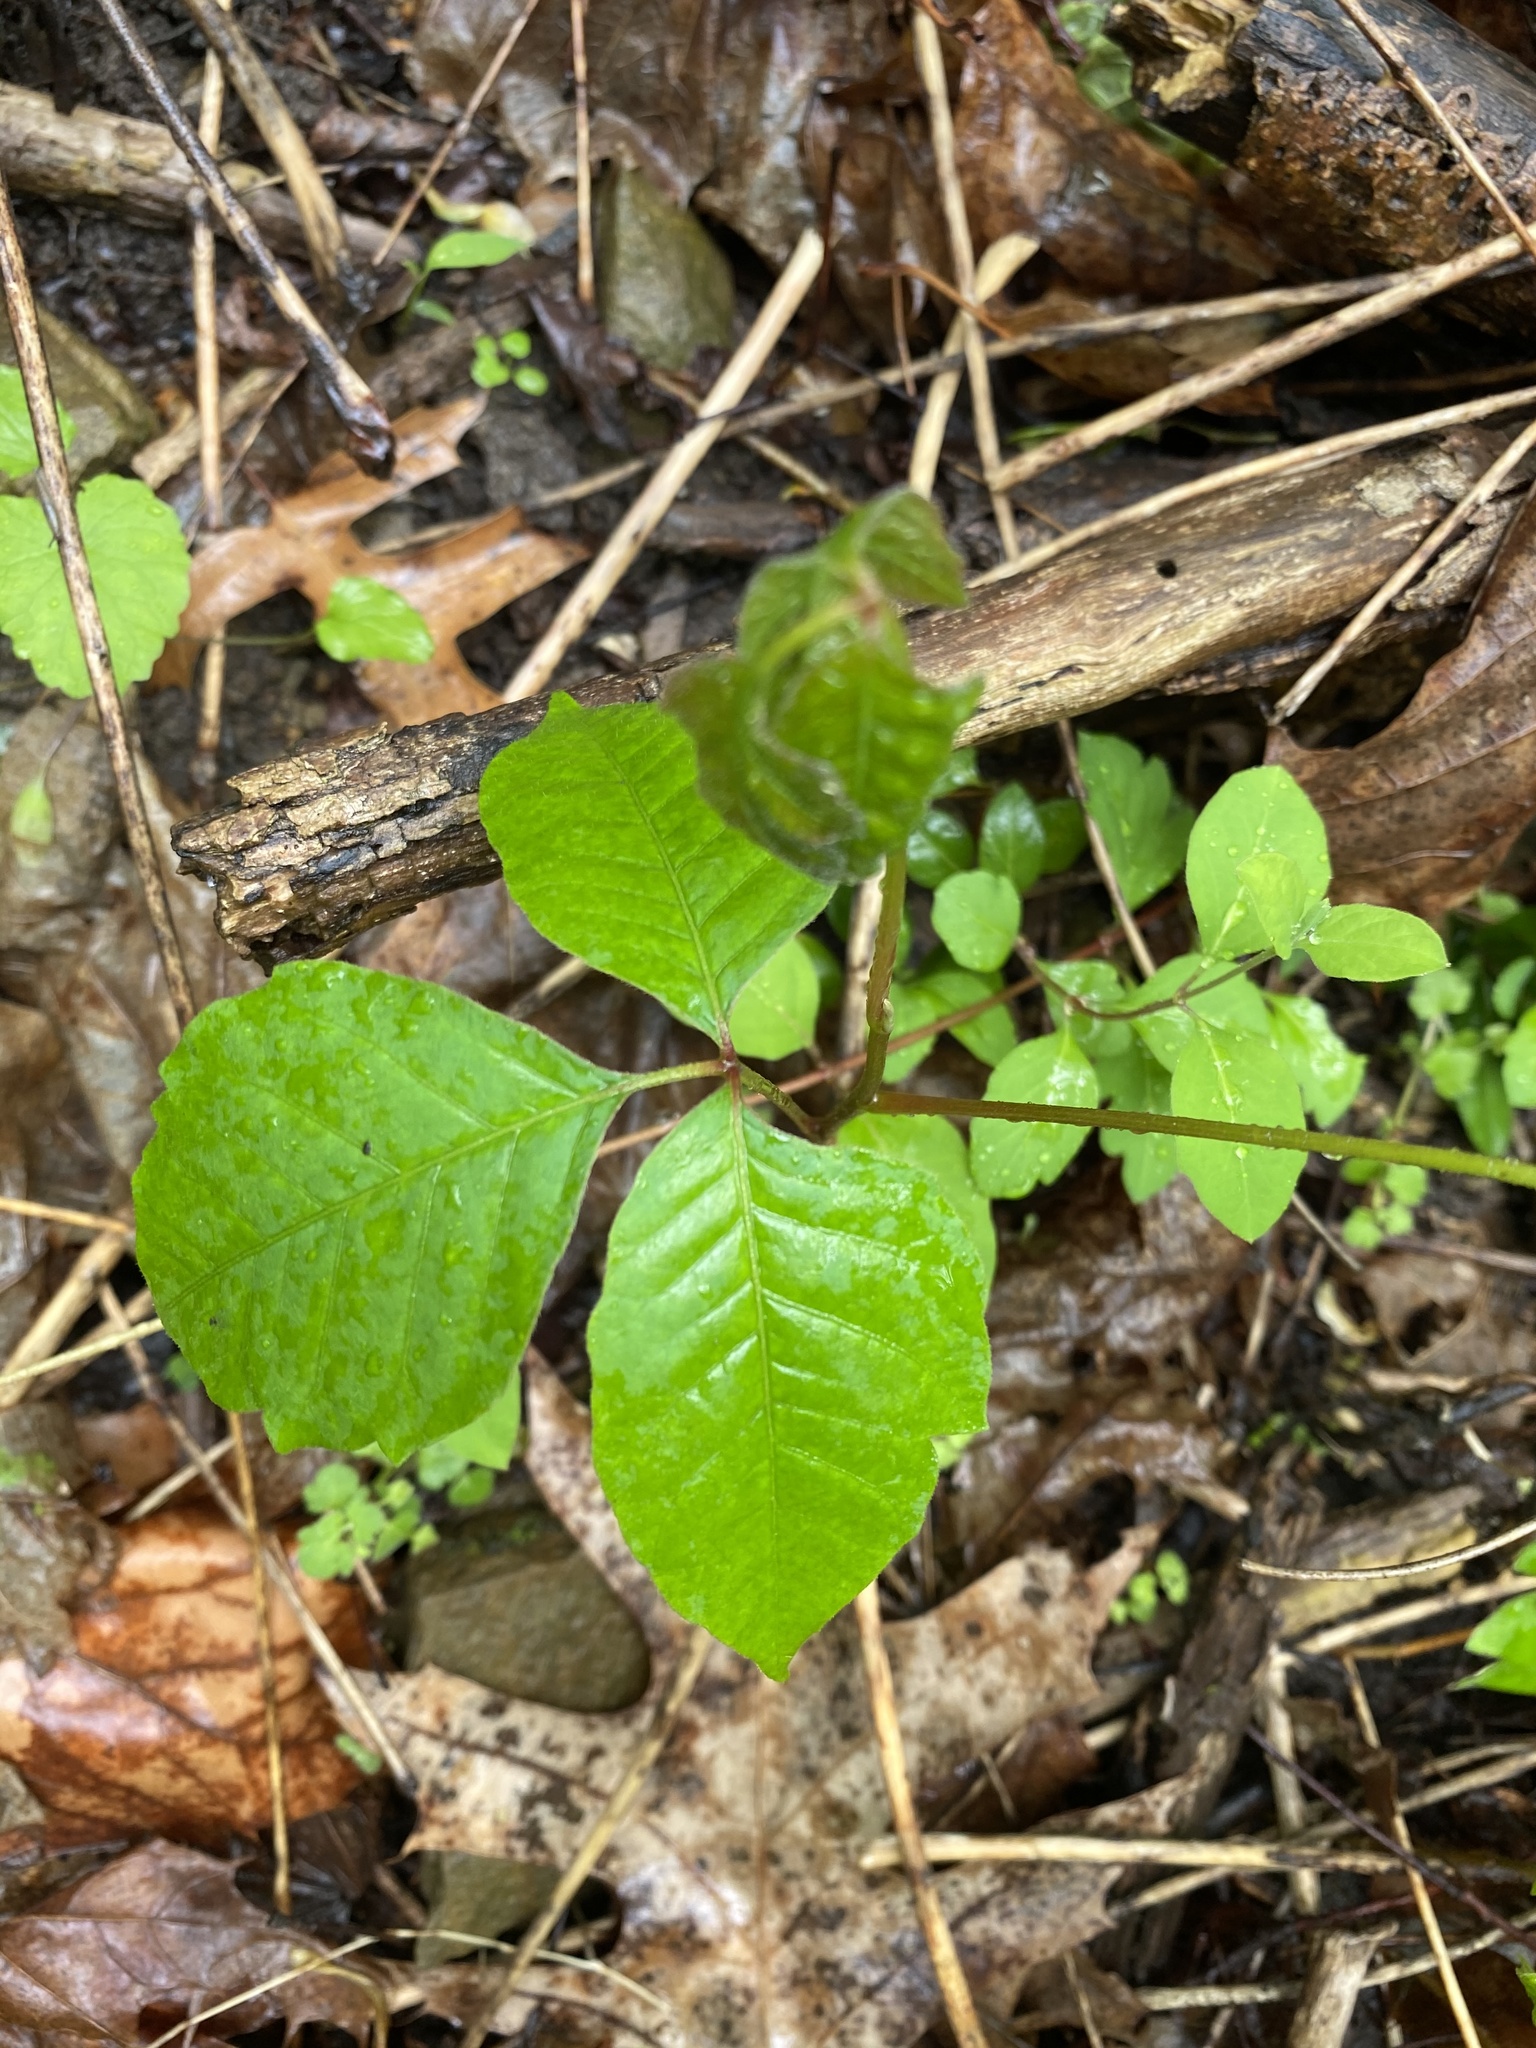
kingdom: Plantae
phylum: Tracheophyta
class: Magnoliopsida
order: Sapindales
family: Anacardiaceae
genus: Toxicodendron
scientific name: Toxicodendron radicans
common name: Poison ivy
